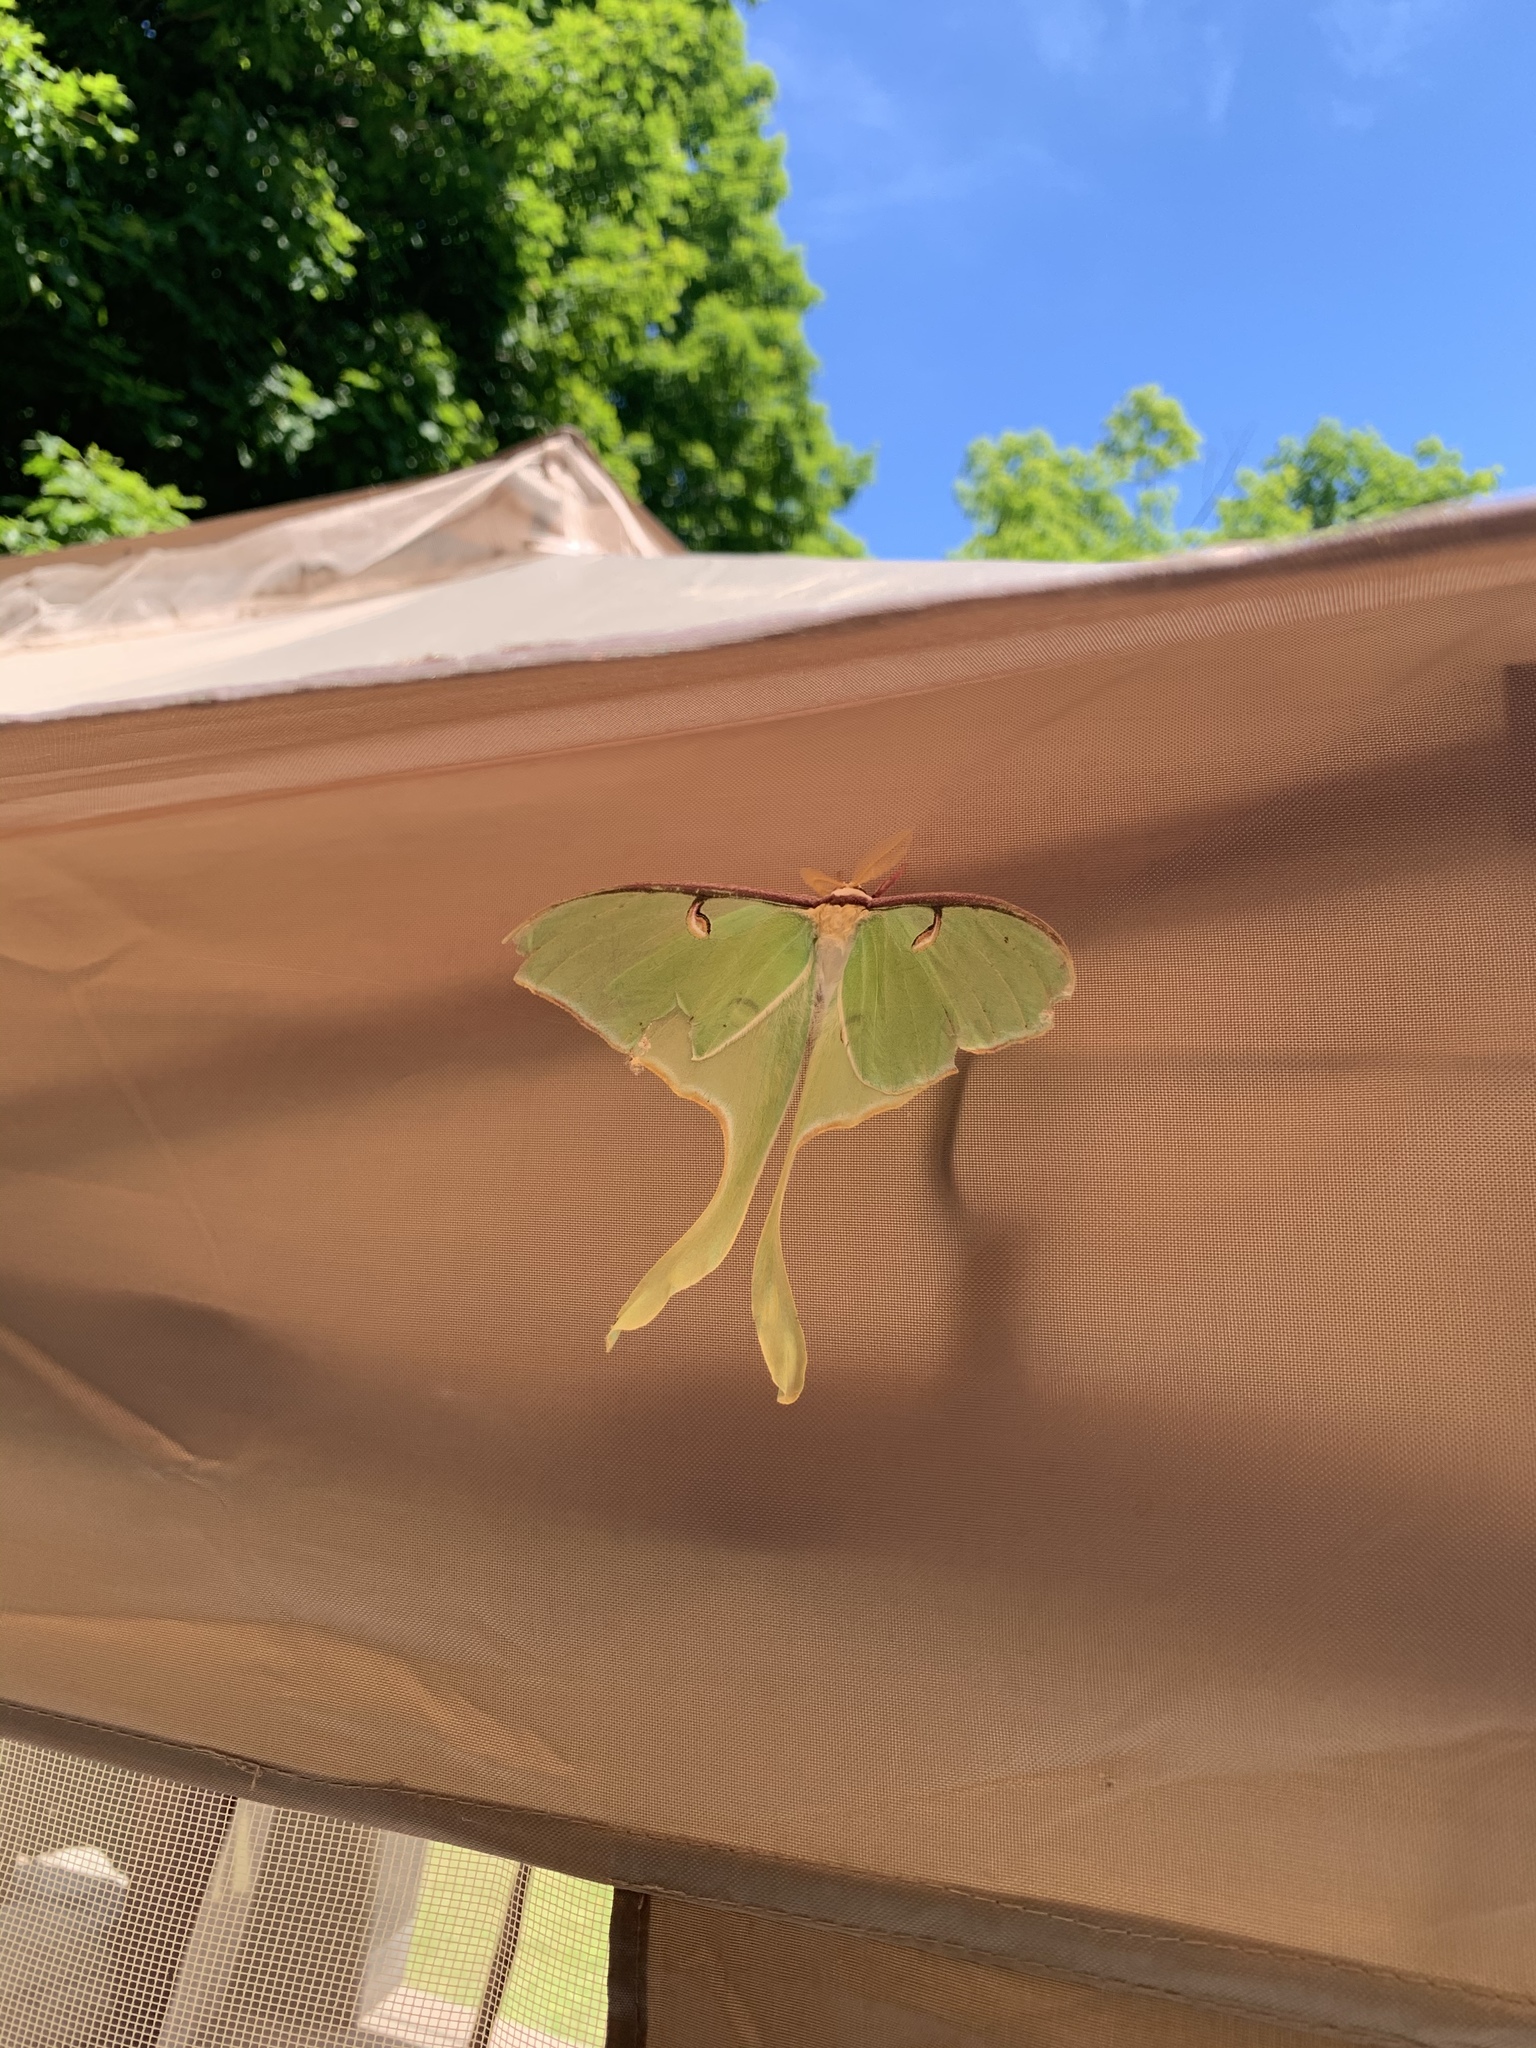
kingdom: Animalia
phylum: Arthropoda
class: Insecta
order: Lepidoptera
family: Saturniidae
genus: Actias
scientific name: Actias luna
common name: Luna moth
